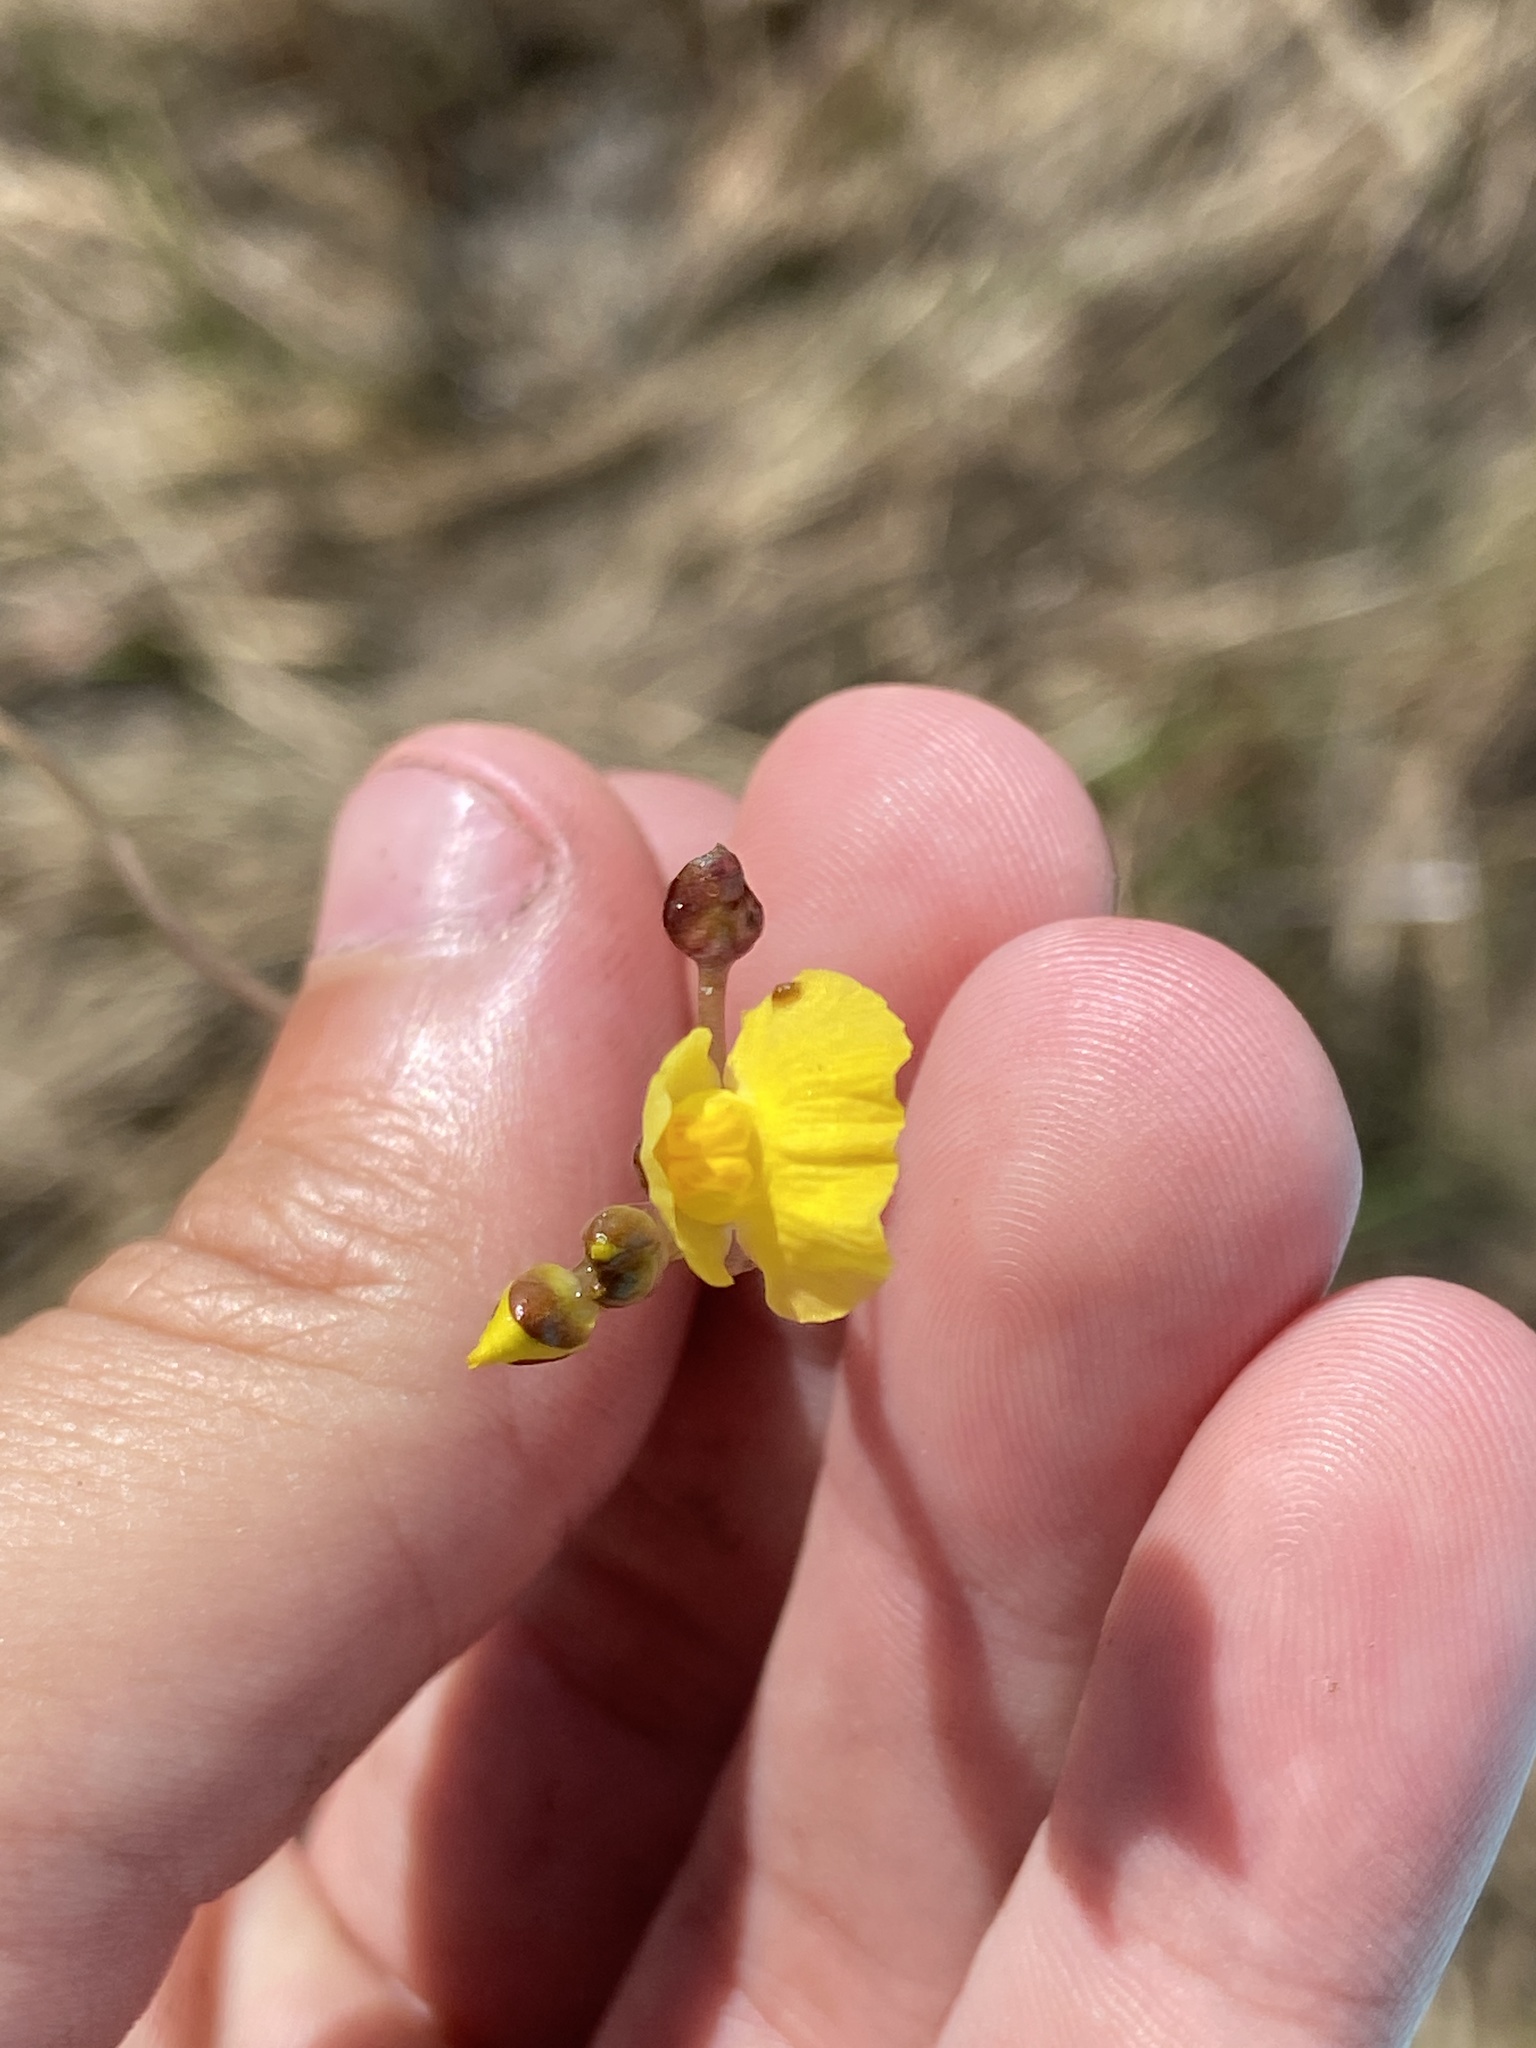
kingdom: Plantae
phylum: Tracheophyta
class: Magnoliopsida
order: Lamiales
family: Lentibulariaceae
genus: Utricularia
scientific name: Utricularia foliosa
